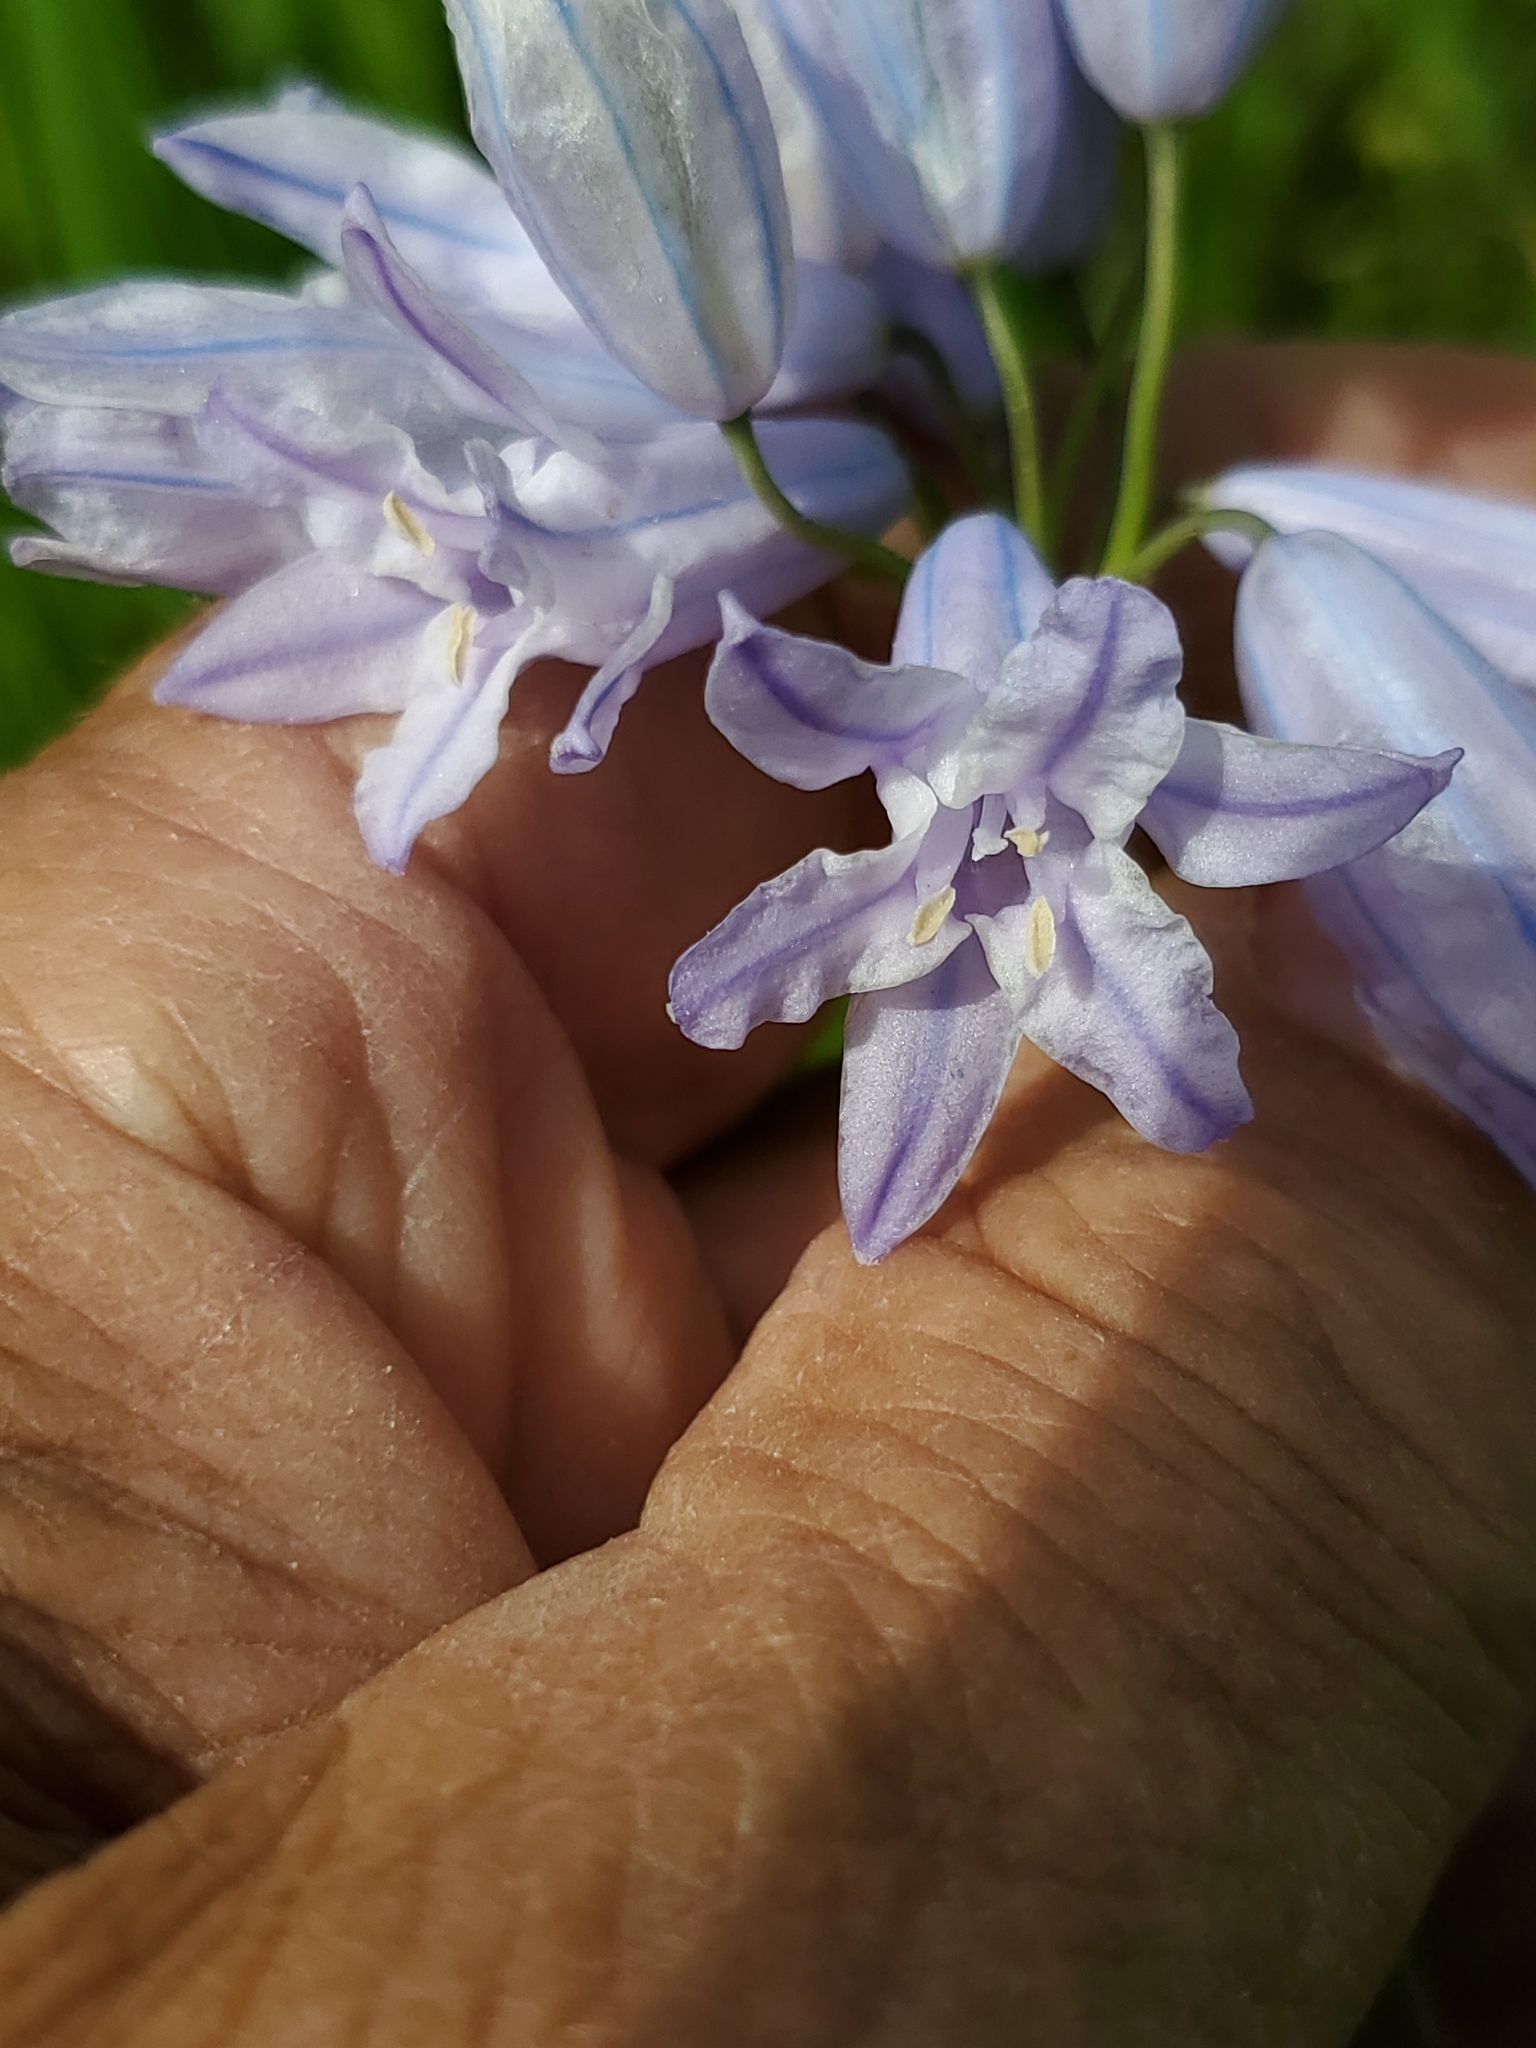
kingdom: Plantae
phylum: Tracheophyta
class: Liliopsida
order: Asparagales
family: Asparagaceae
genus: Triteleia
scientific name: Triteleia grandiflora
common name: Wild hyacinth
